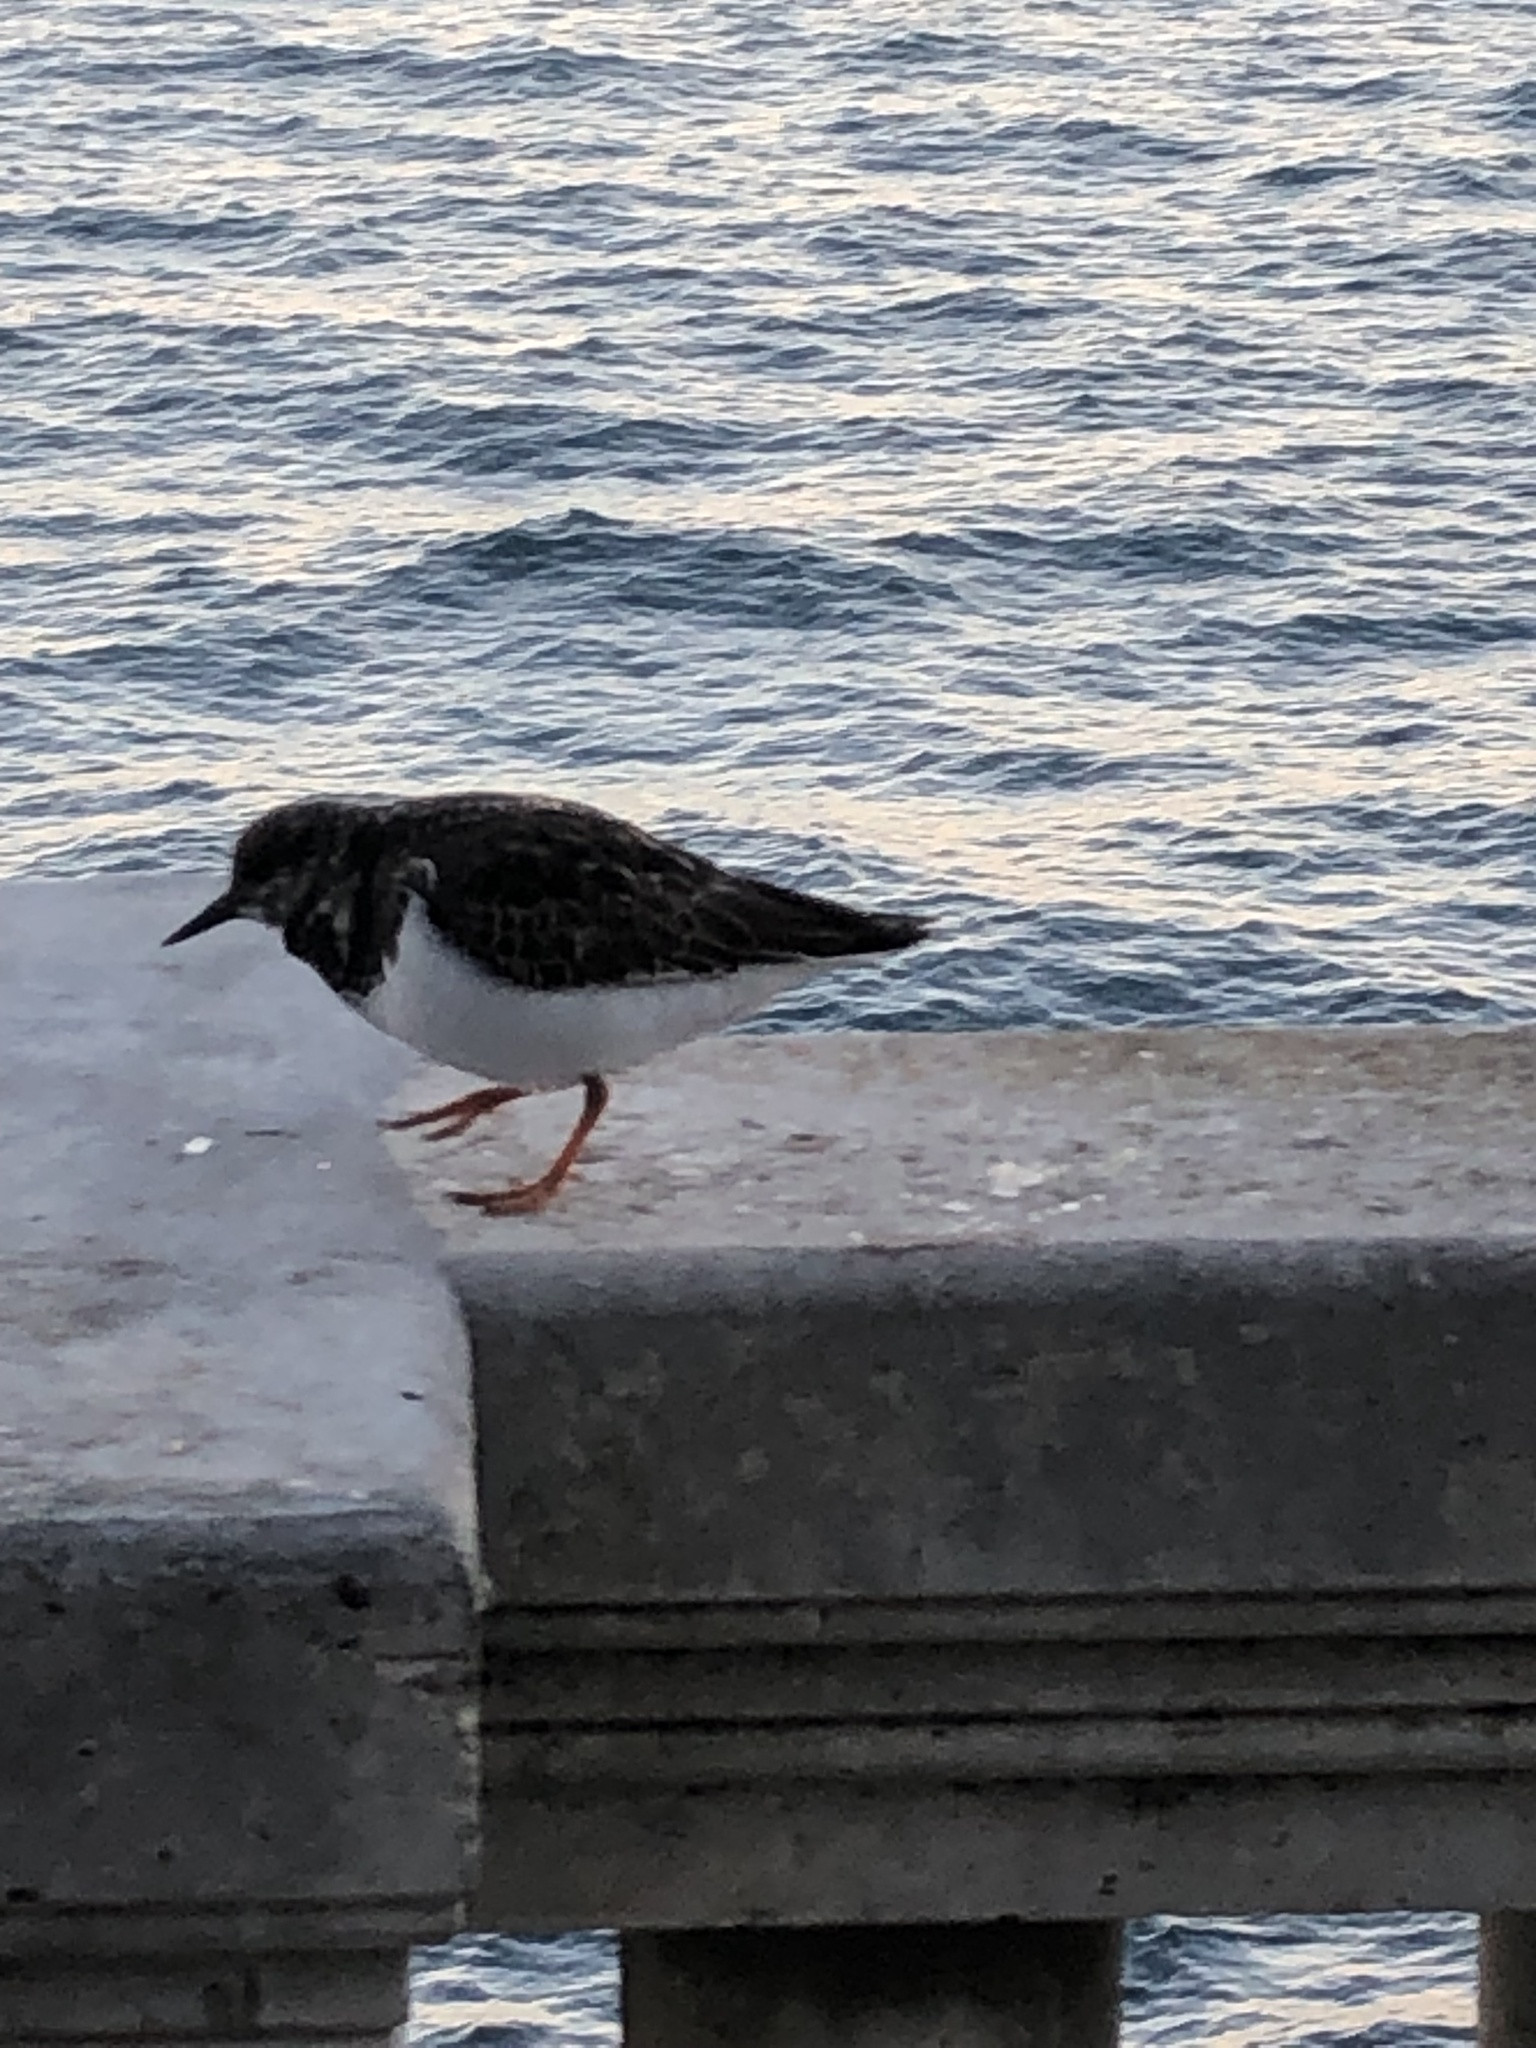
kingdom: Animalia
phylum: Chordata
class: Aves
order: Charadriiformes
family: Scolopacidae
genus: Arenaria
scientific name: Arenaria interpres
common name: Ruddy turnstone
